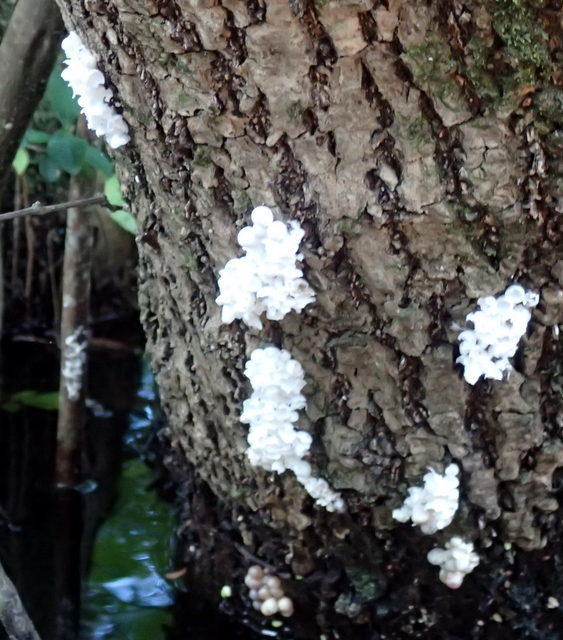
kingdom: Animalia
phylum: Mollusca
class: Gastropoda
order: Architaenioglossa
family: Ampullariidae
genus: Pomacea
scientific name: Pomacea paludosa
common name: Florida applesnail
